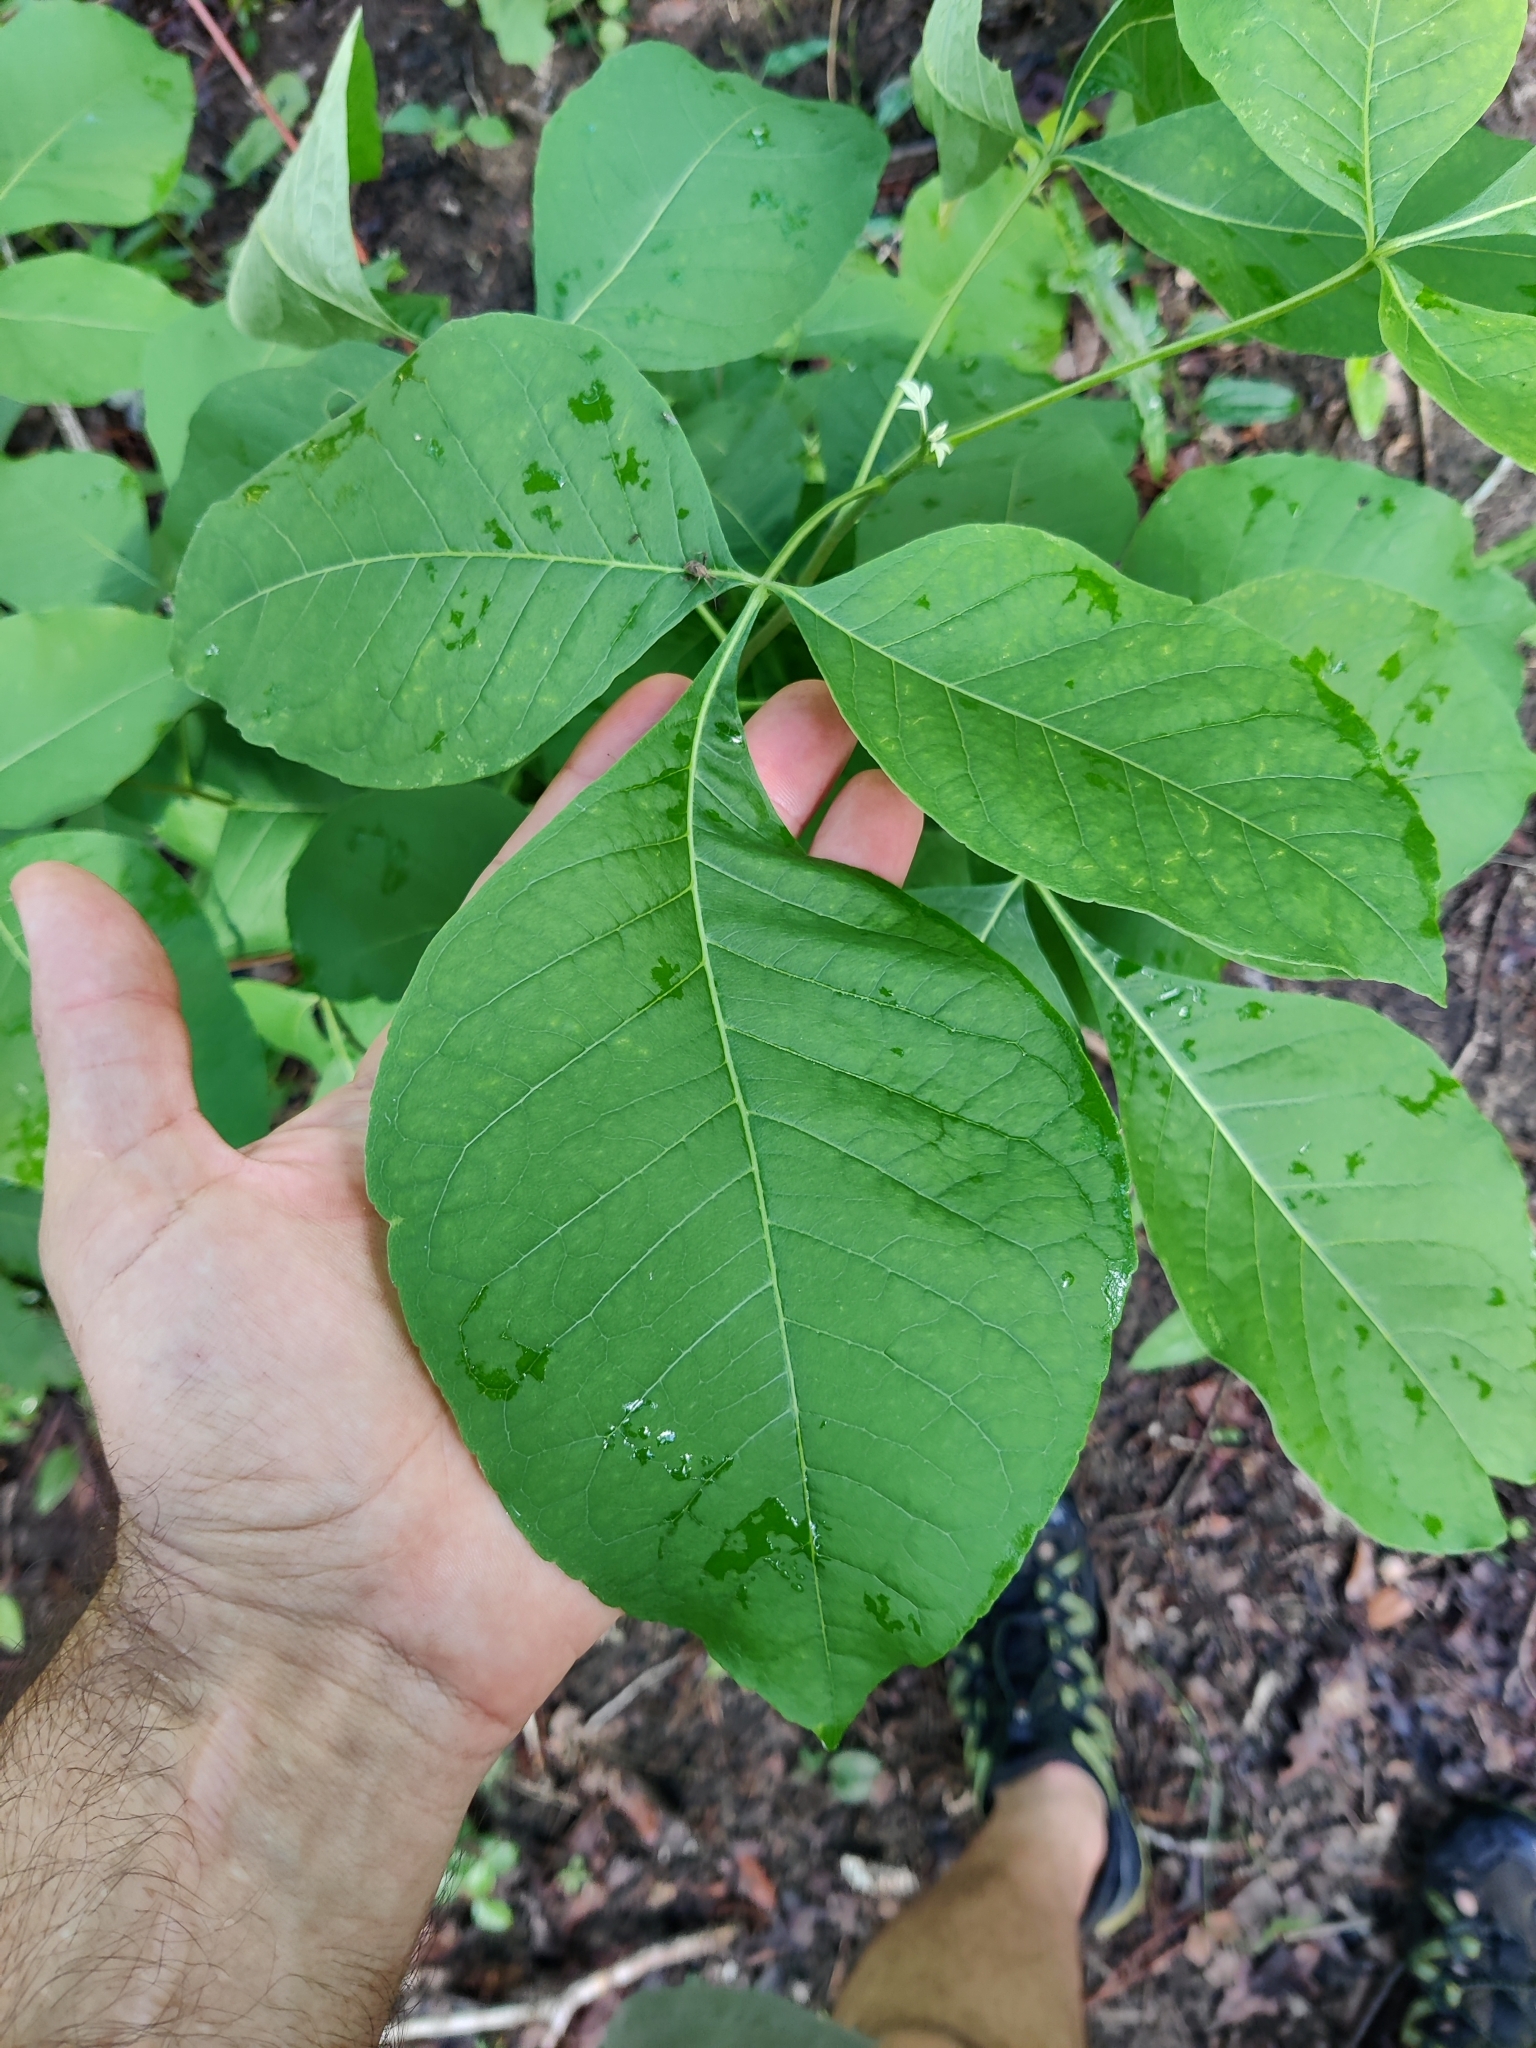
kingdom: Plantae
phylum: Tracheophyta
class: Magnoliopsida
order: Sapindales
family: Rutaceae
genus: Ptelea
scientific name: Ptelea trifoliata
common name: Common hop-tree
